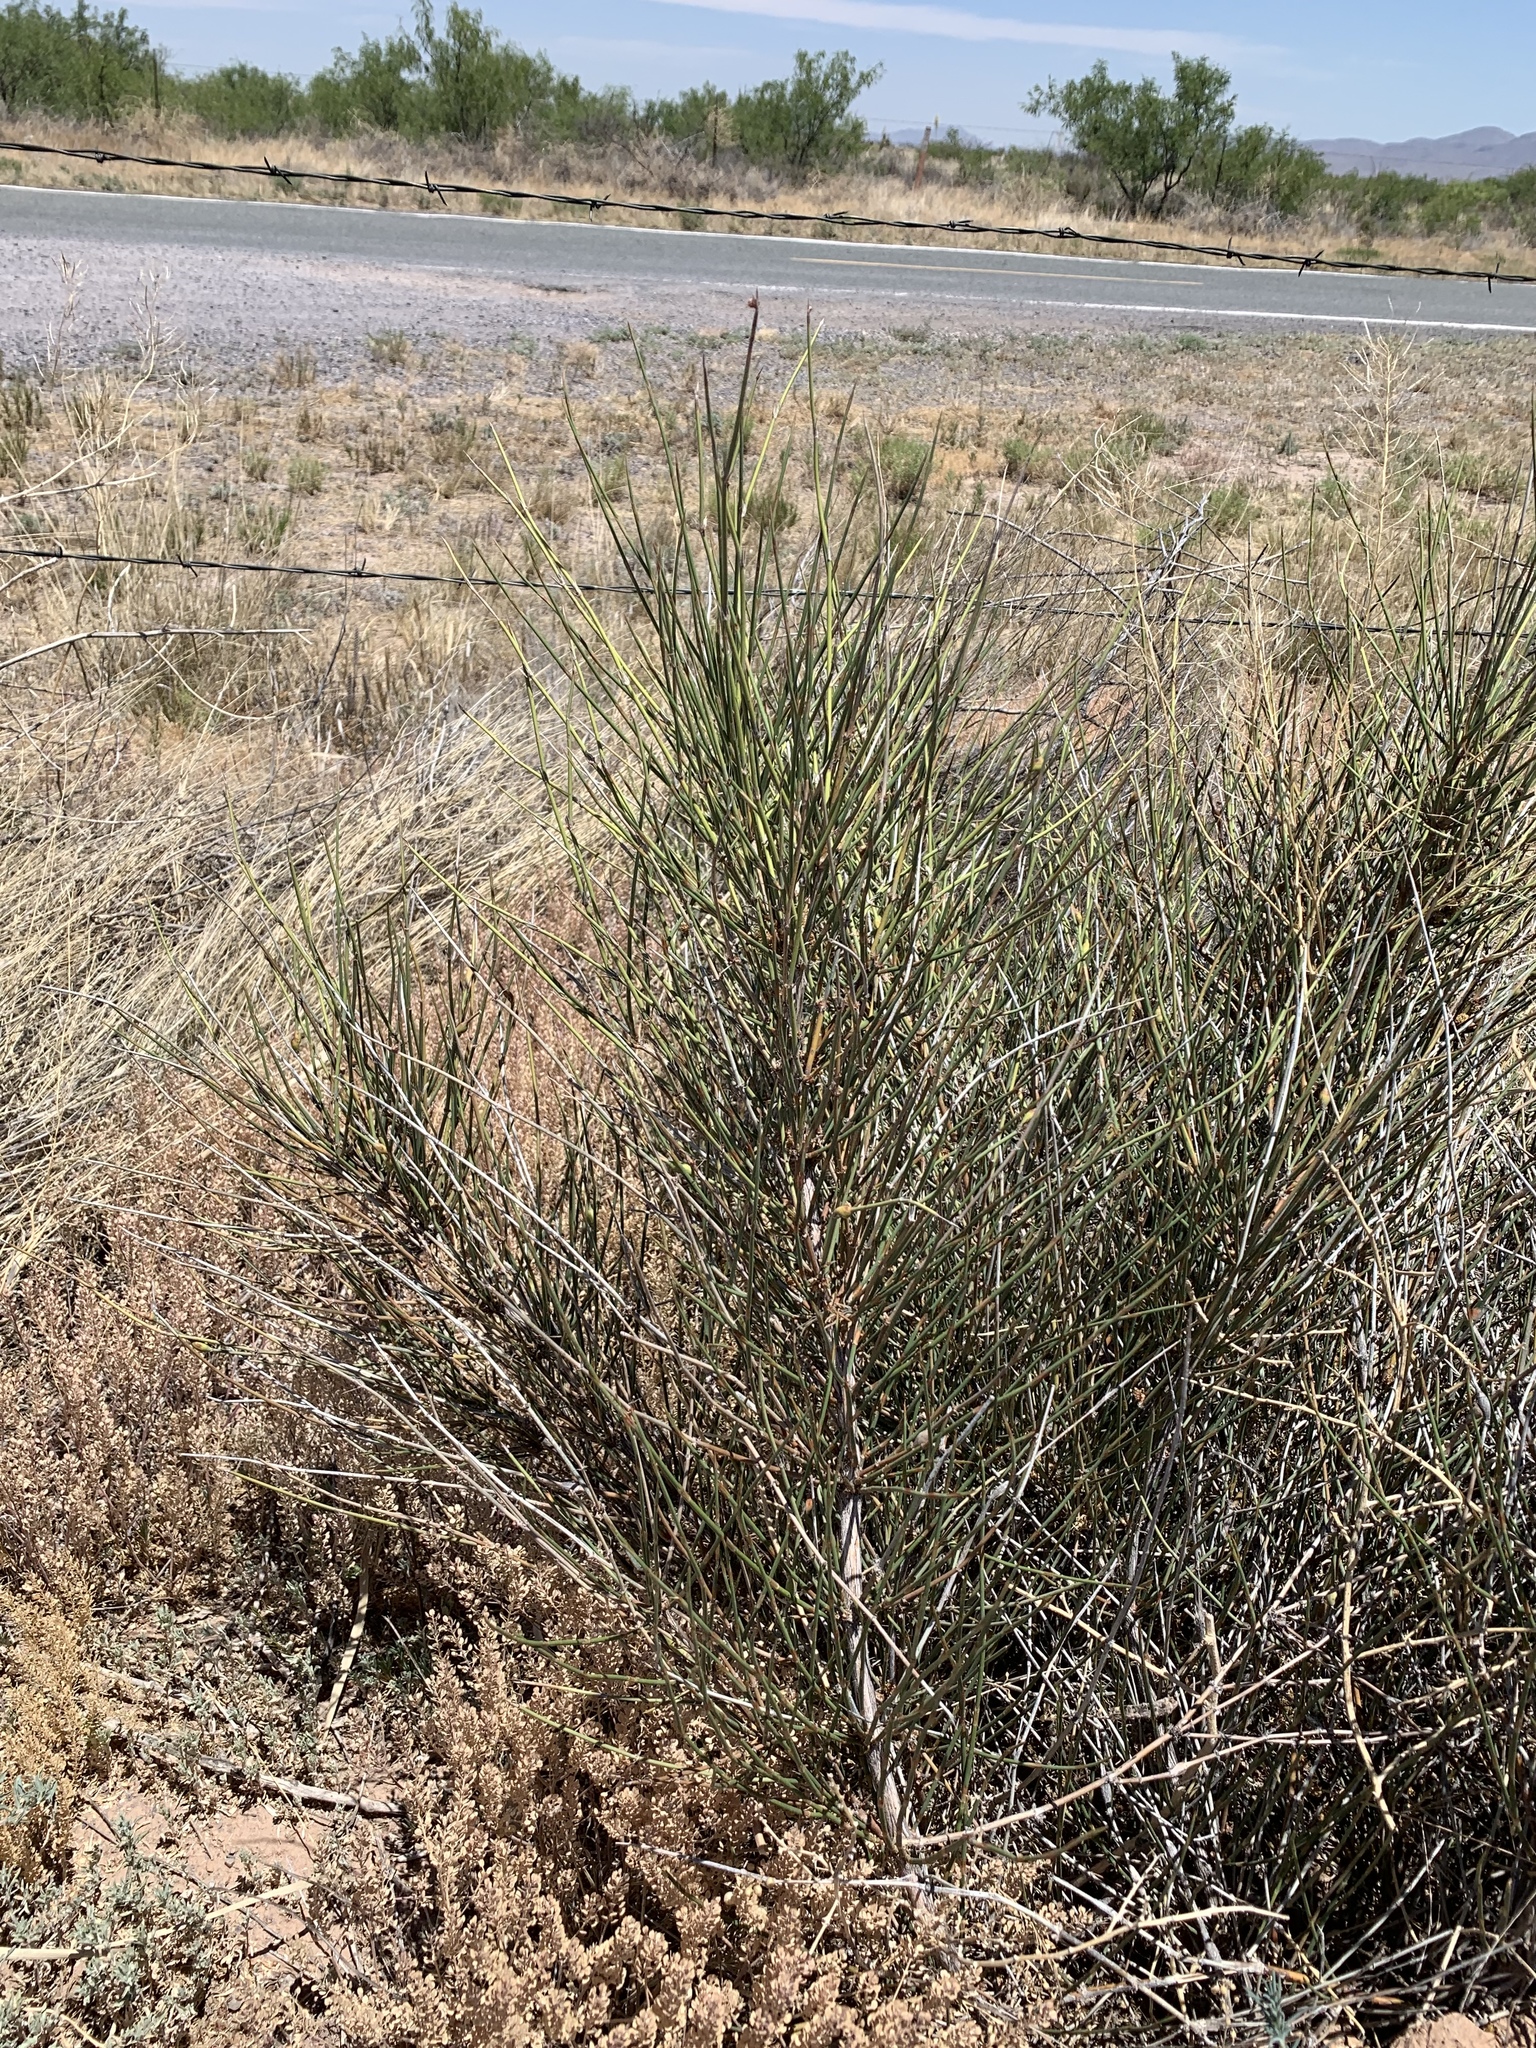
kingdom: Plantae
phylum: Tracheophyta
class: Gnetopsida
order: Ephedrales
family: Ephedraceae
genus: Ephedra
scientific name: Ephedra trifurca
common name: Mexican-tea
